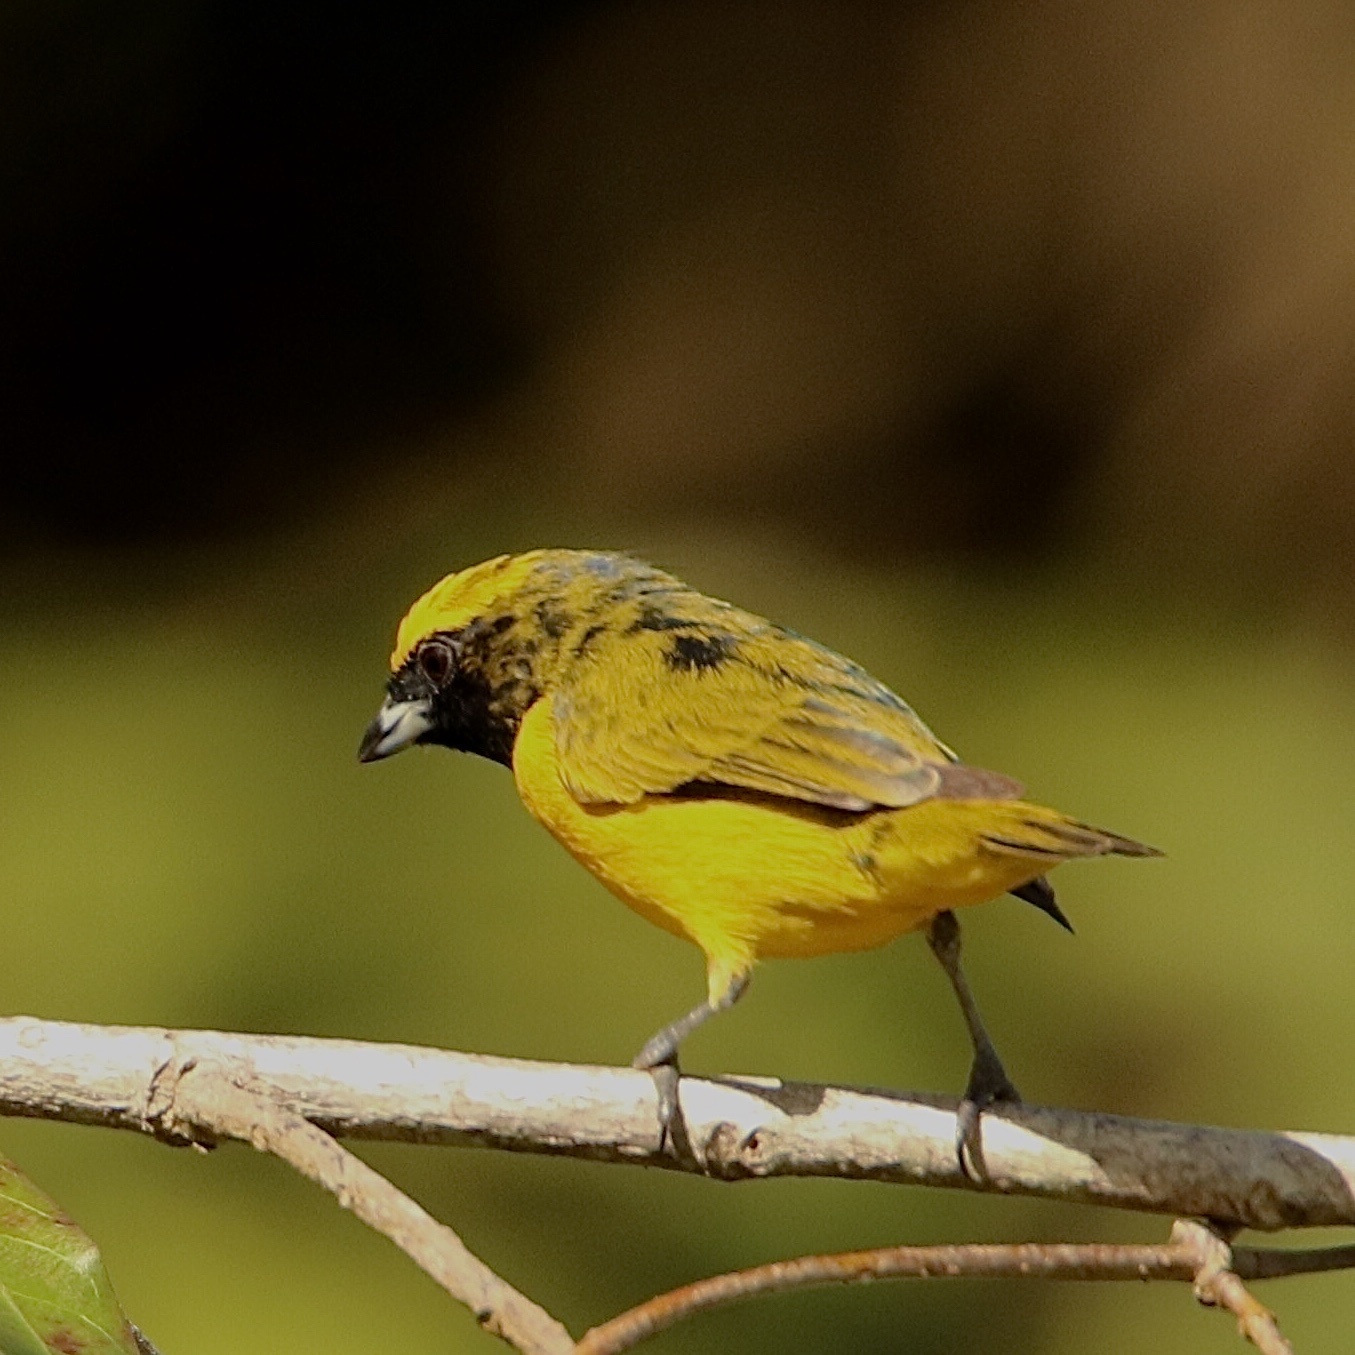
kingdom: Animalia
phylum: Chordata
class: Aves
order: Passeriformes
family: Fringillidae
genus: Euphonia
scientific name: Euphonia luteicapilla
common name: Yellow-crowned euphonia
